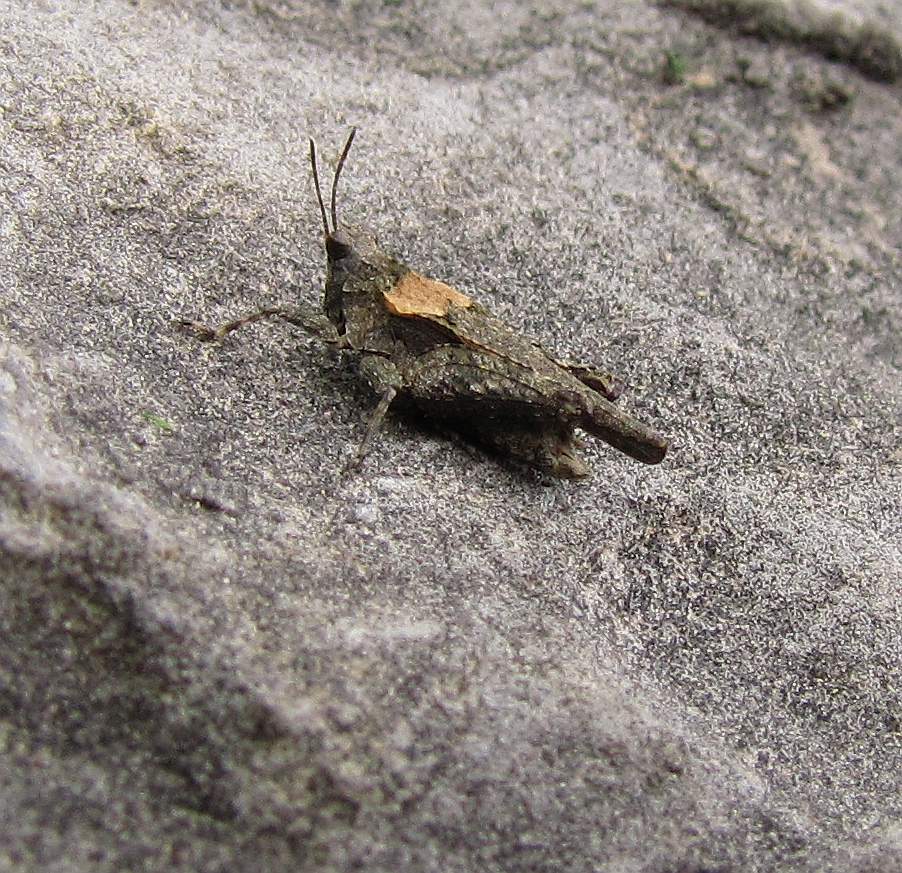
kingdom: Animalia
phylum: Arthropoda
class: Insecta
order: Orthoptera
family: Tetrigidae
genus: Tetrix
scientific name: Tetrix arenosa
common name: Ornate pygmy grasshopper
